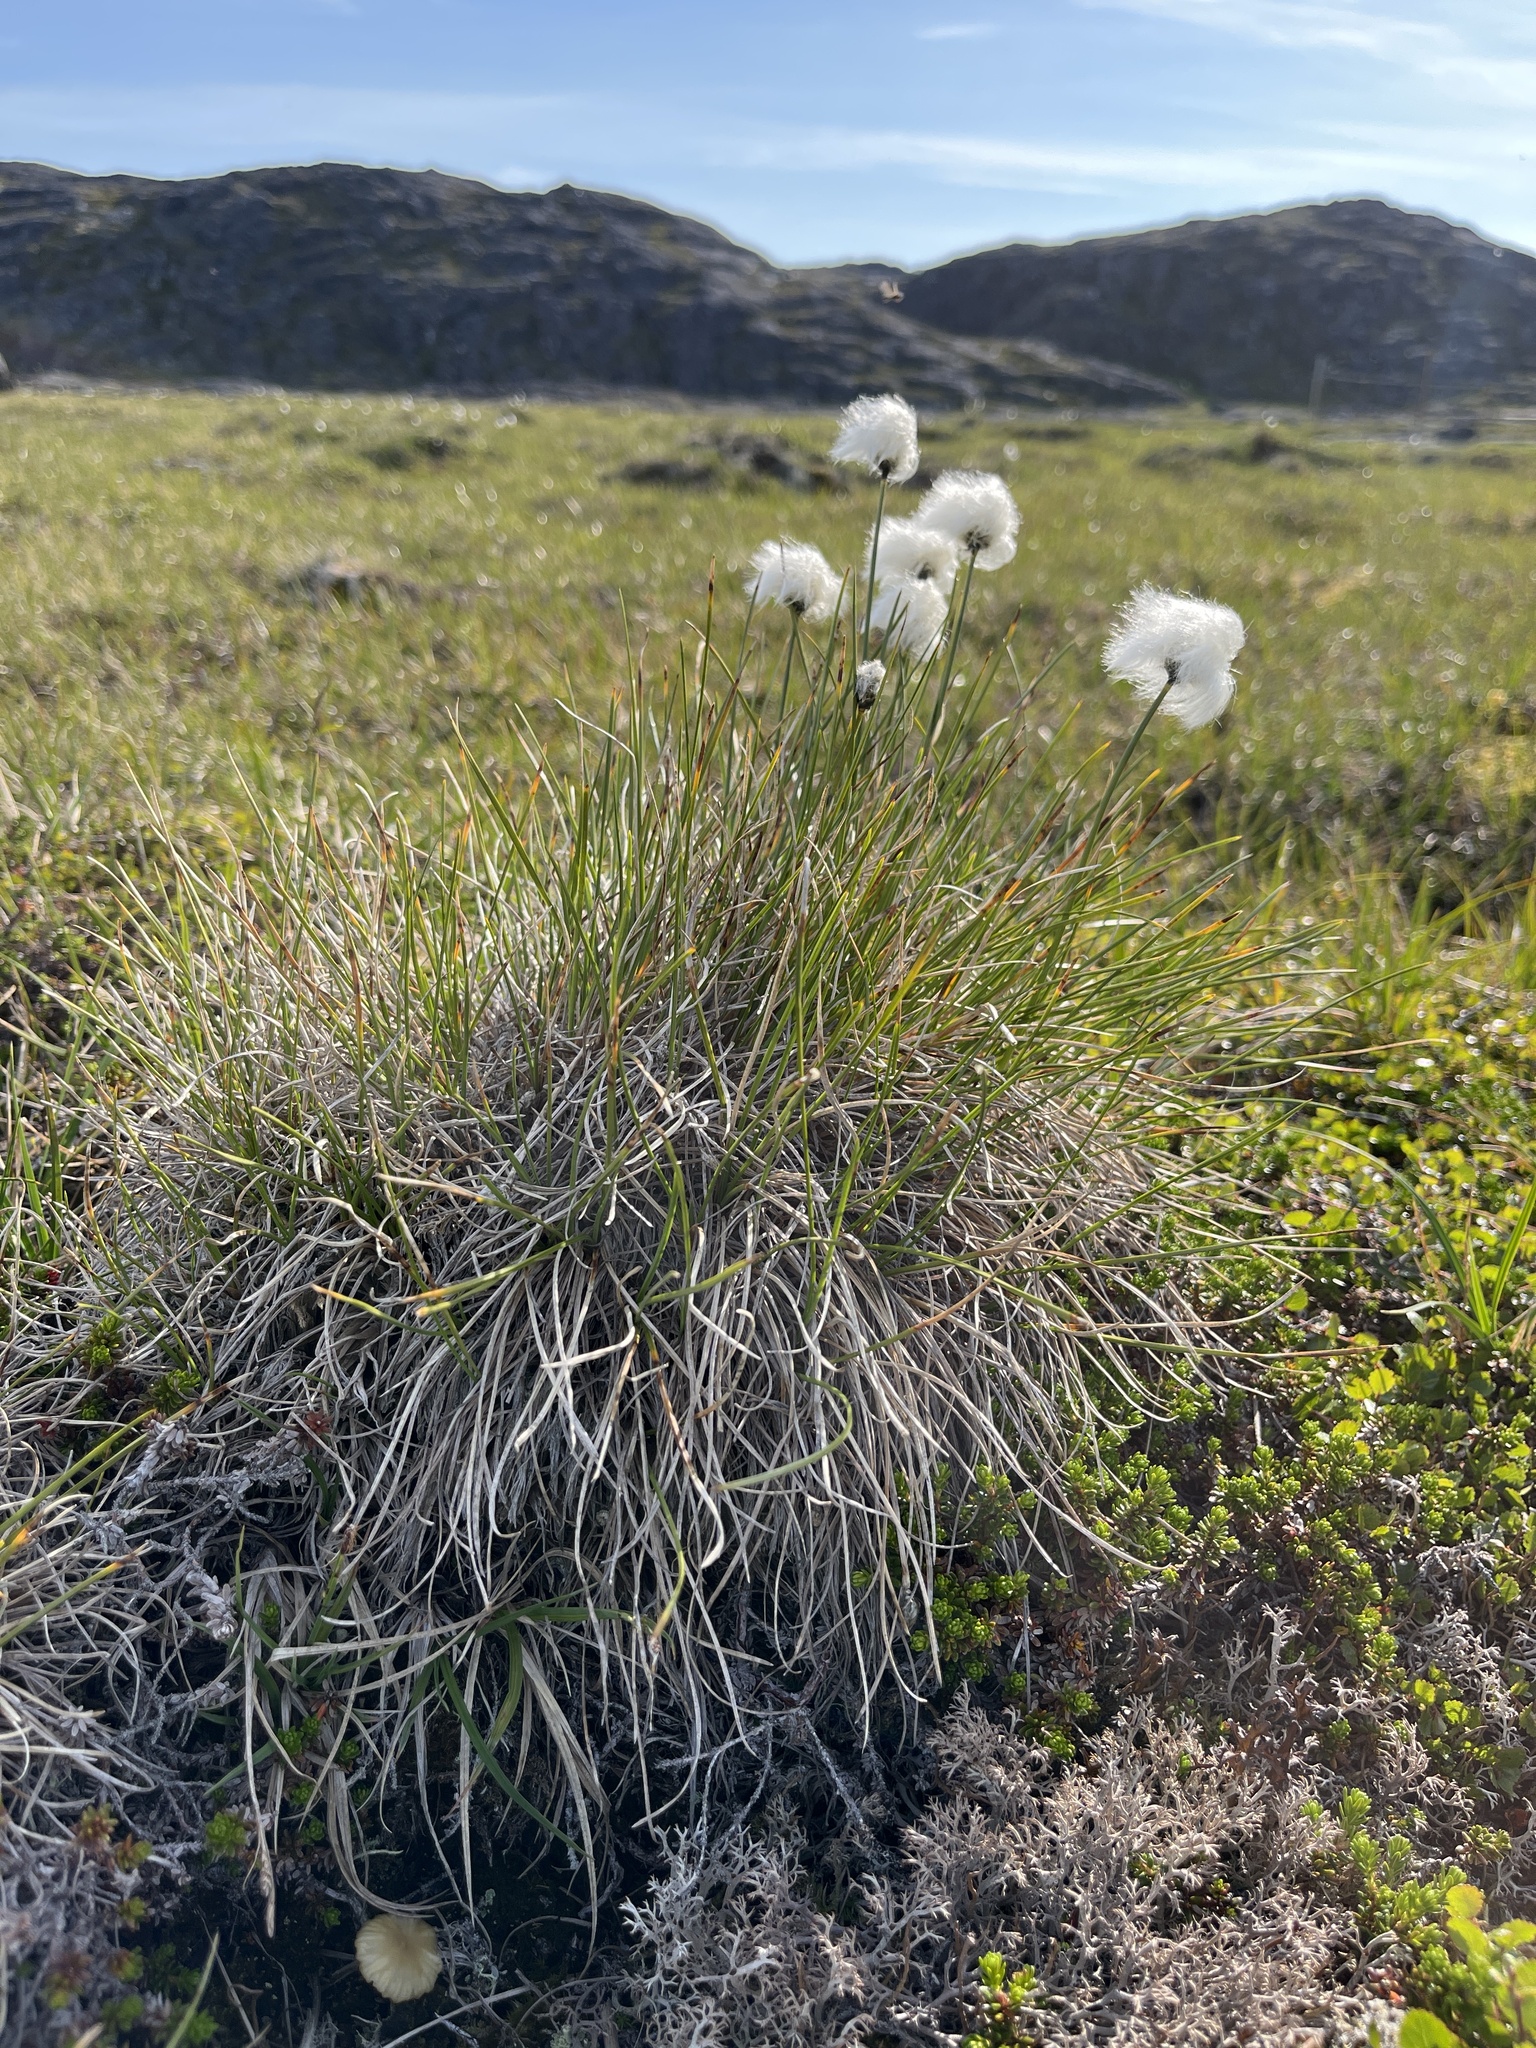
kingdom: Plantae
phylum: Tracheophyta
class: Liliopsida
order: Poales
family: Cyperaceae
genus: Eriophorum
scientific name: Eriophorum vaginatum
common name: Hare's-tail cottongrass
